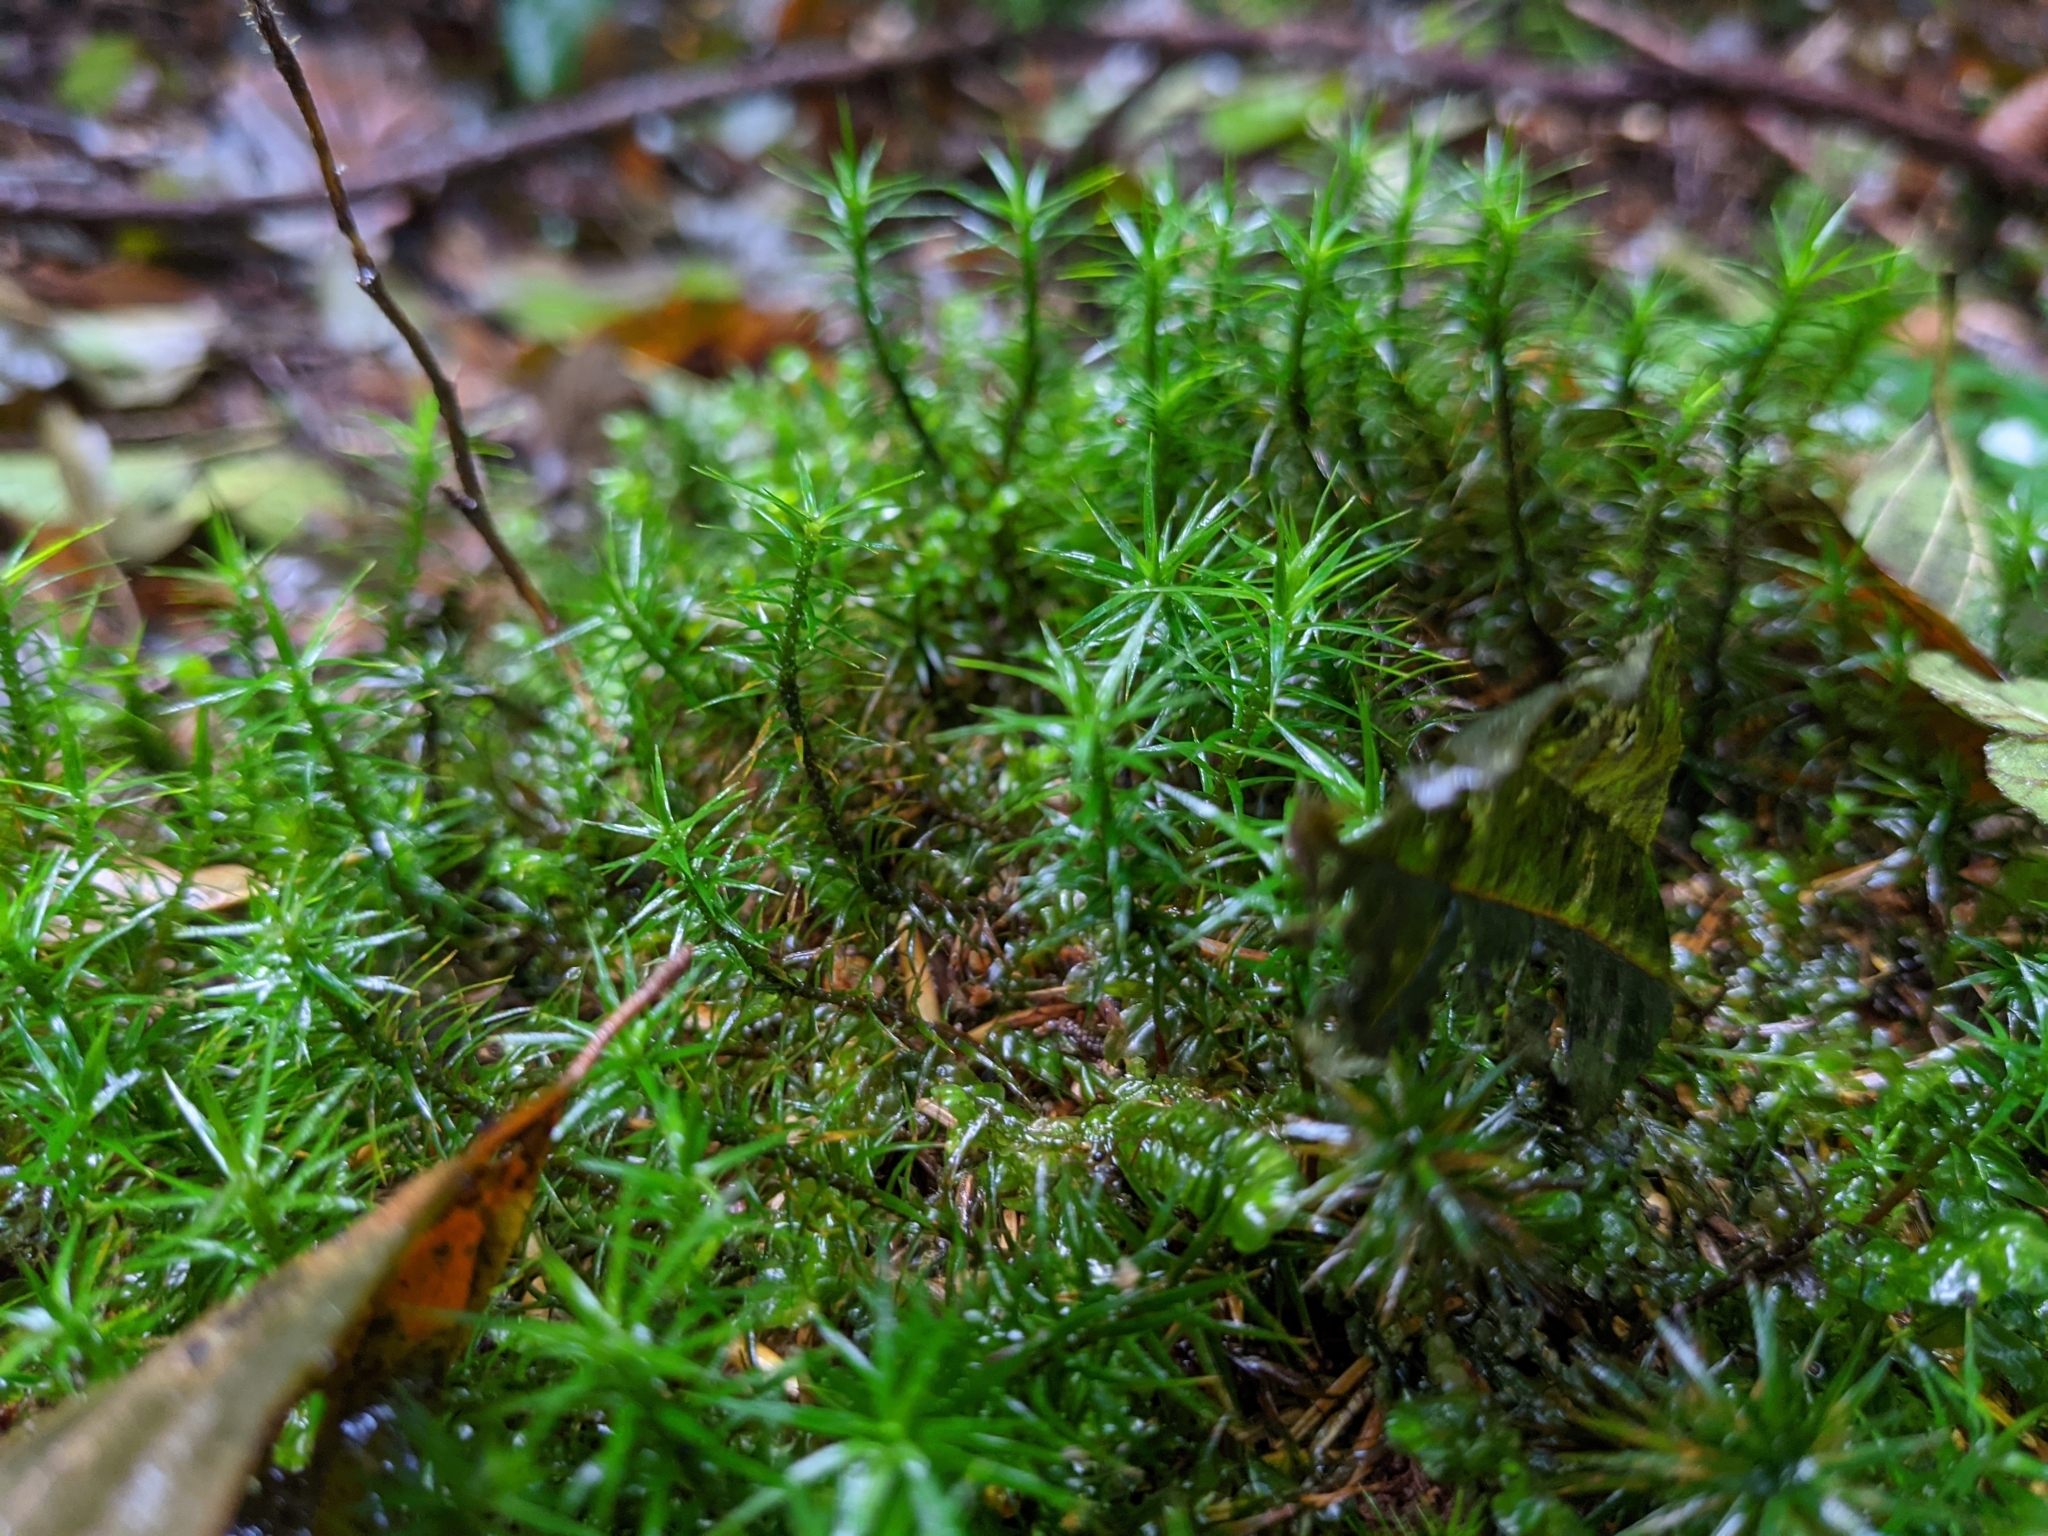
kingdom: Plantae
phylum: Bryophyta
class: Polytrichopsida
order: Polytrichales
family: Polytrichaceae
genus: Polytrichum
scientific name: Polytrichum formosum
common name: Bank haircap moss
